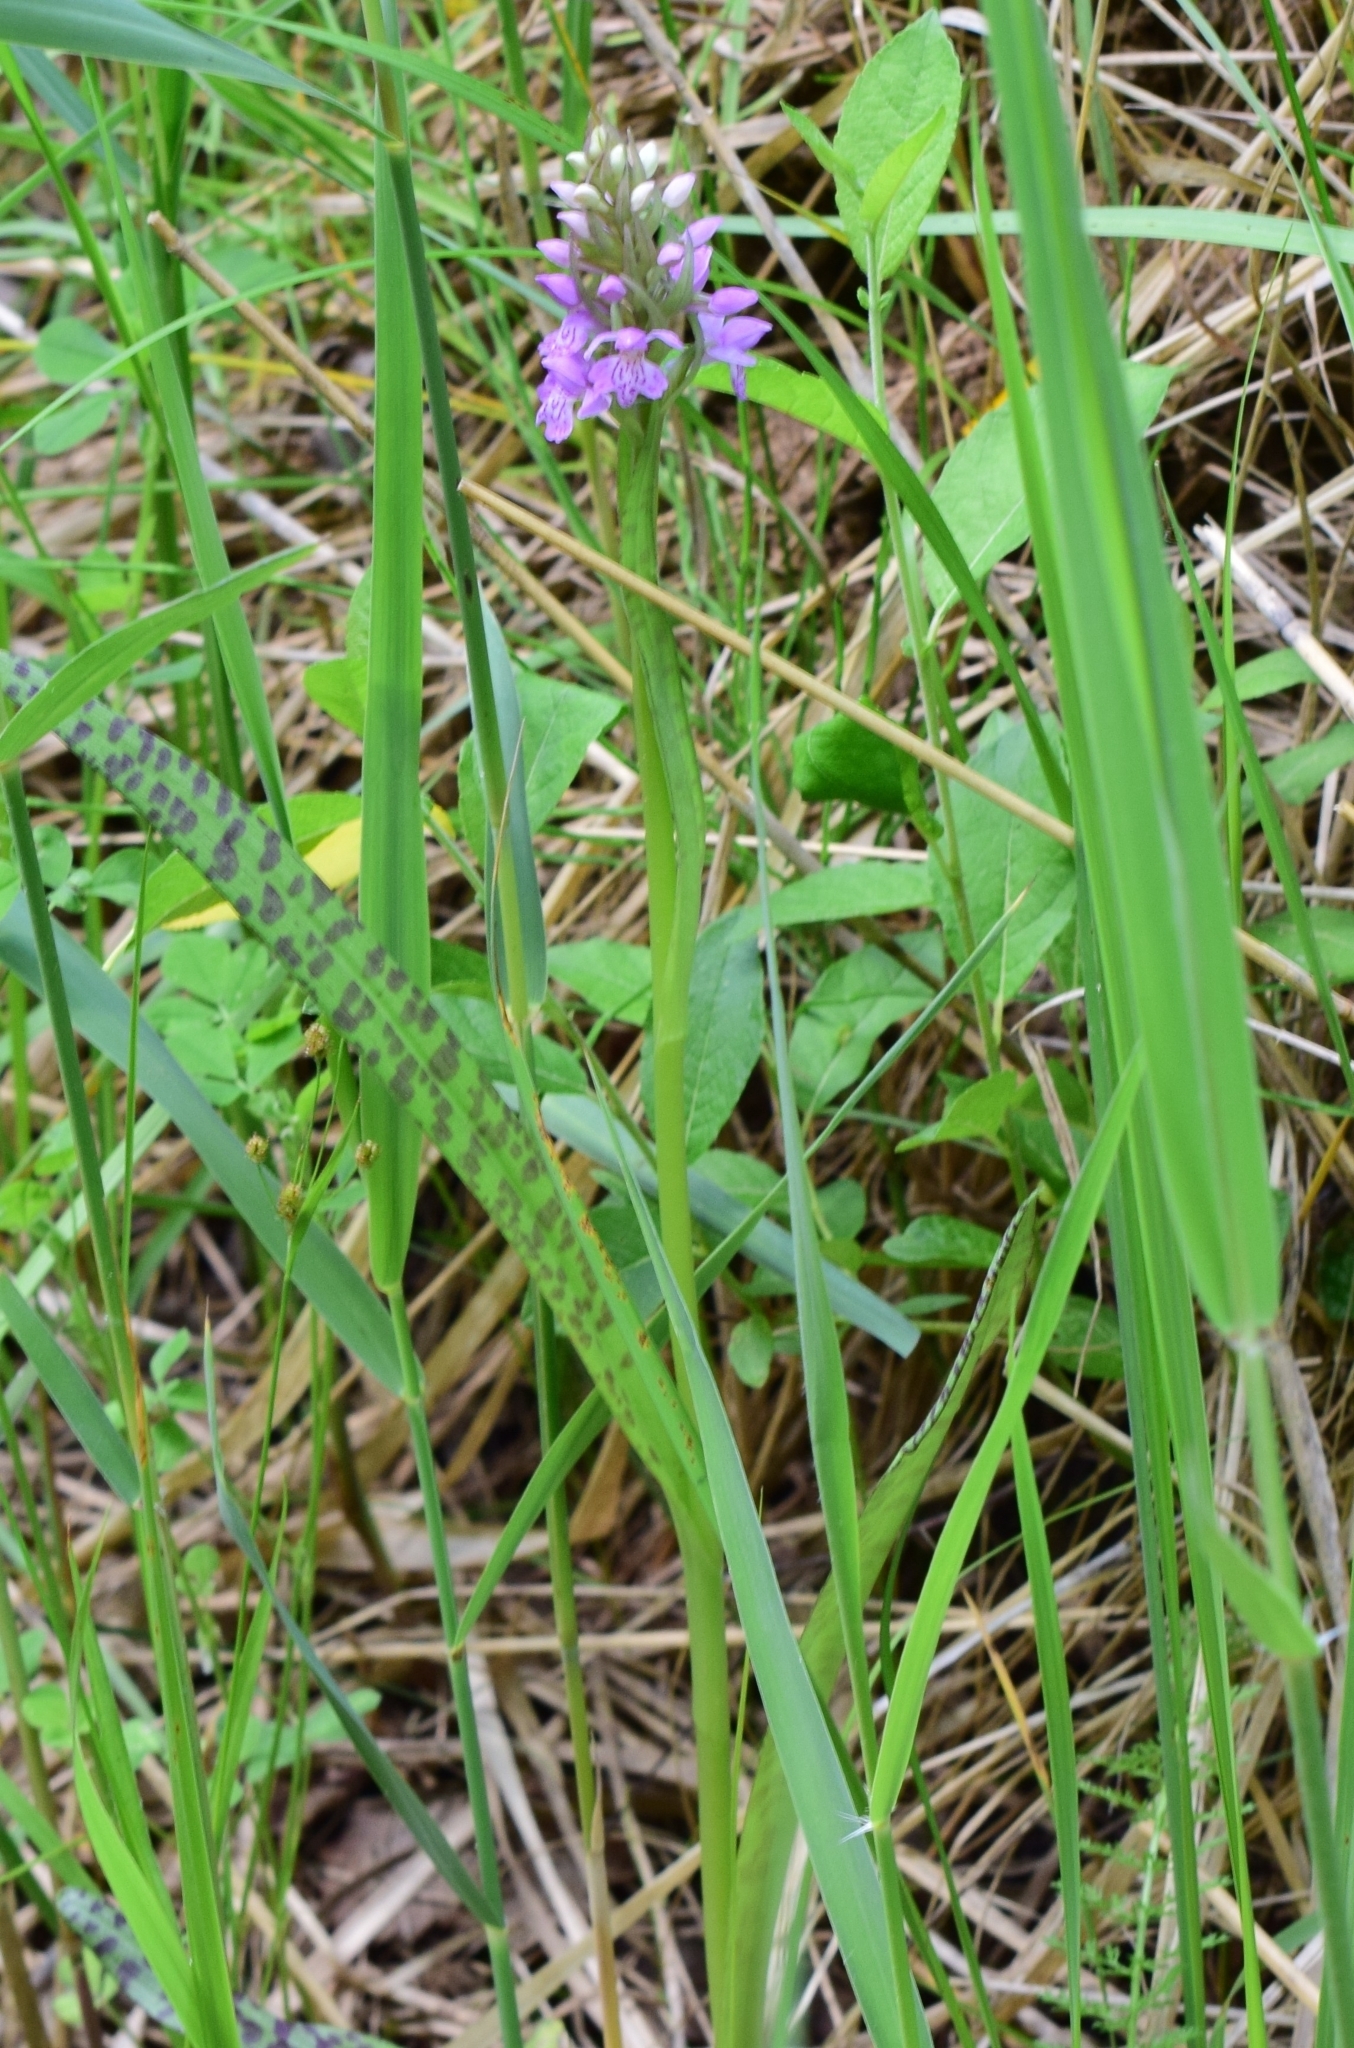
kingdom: Plantae
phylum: Tracheophyta
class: Liliopsida
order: Asparagales
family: Orchidaceae
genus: Dactylorhiza
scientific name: Dactylorhiza majalis
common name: Marsh orchid
